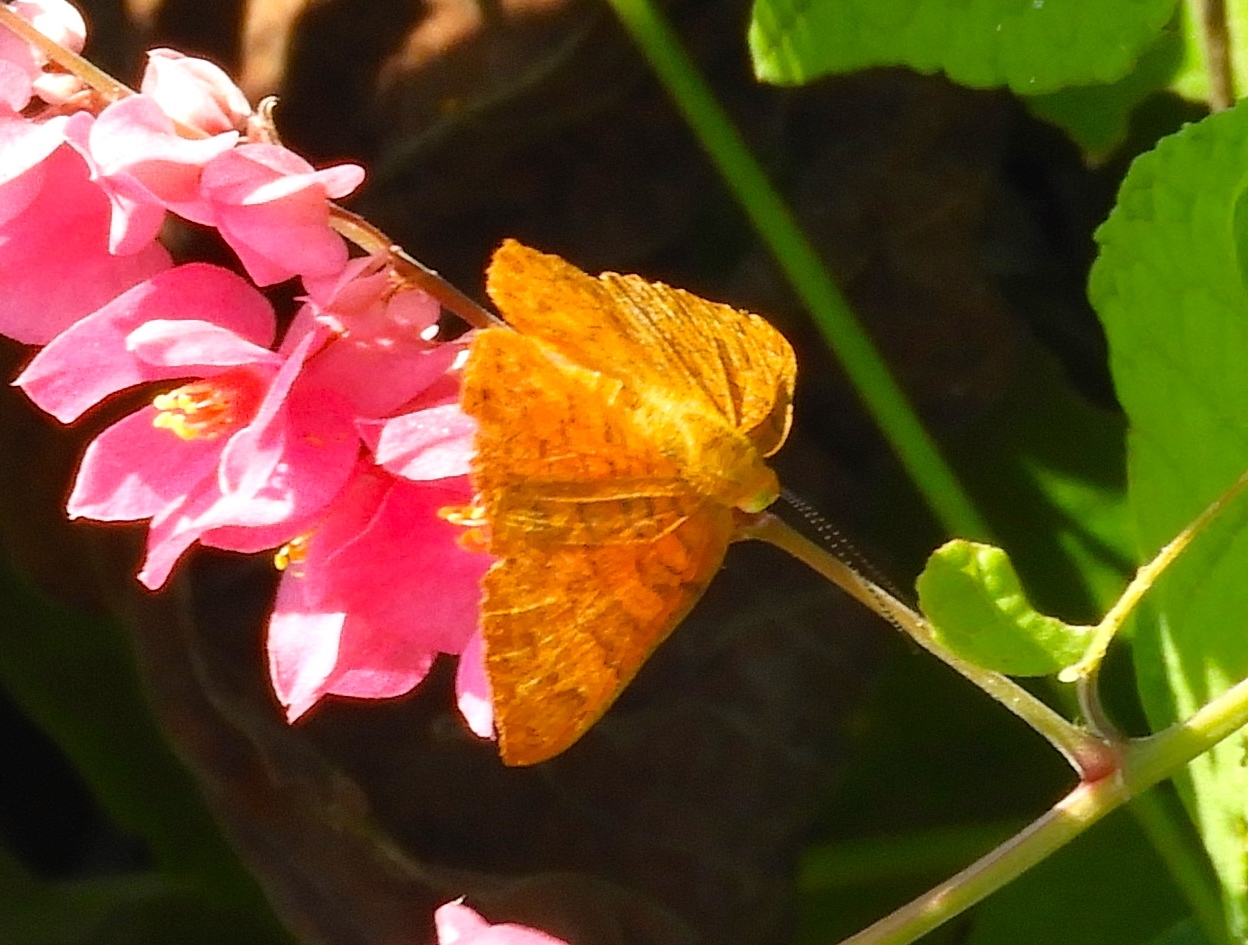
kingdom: Animalia
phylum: Arthropoda
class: Insecta
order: Lepidoptera
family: Lycaenidae
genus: Emesis
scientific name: Emesis tenedia
